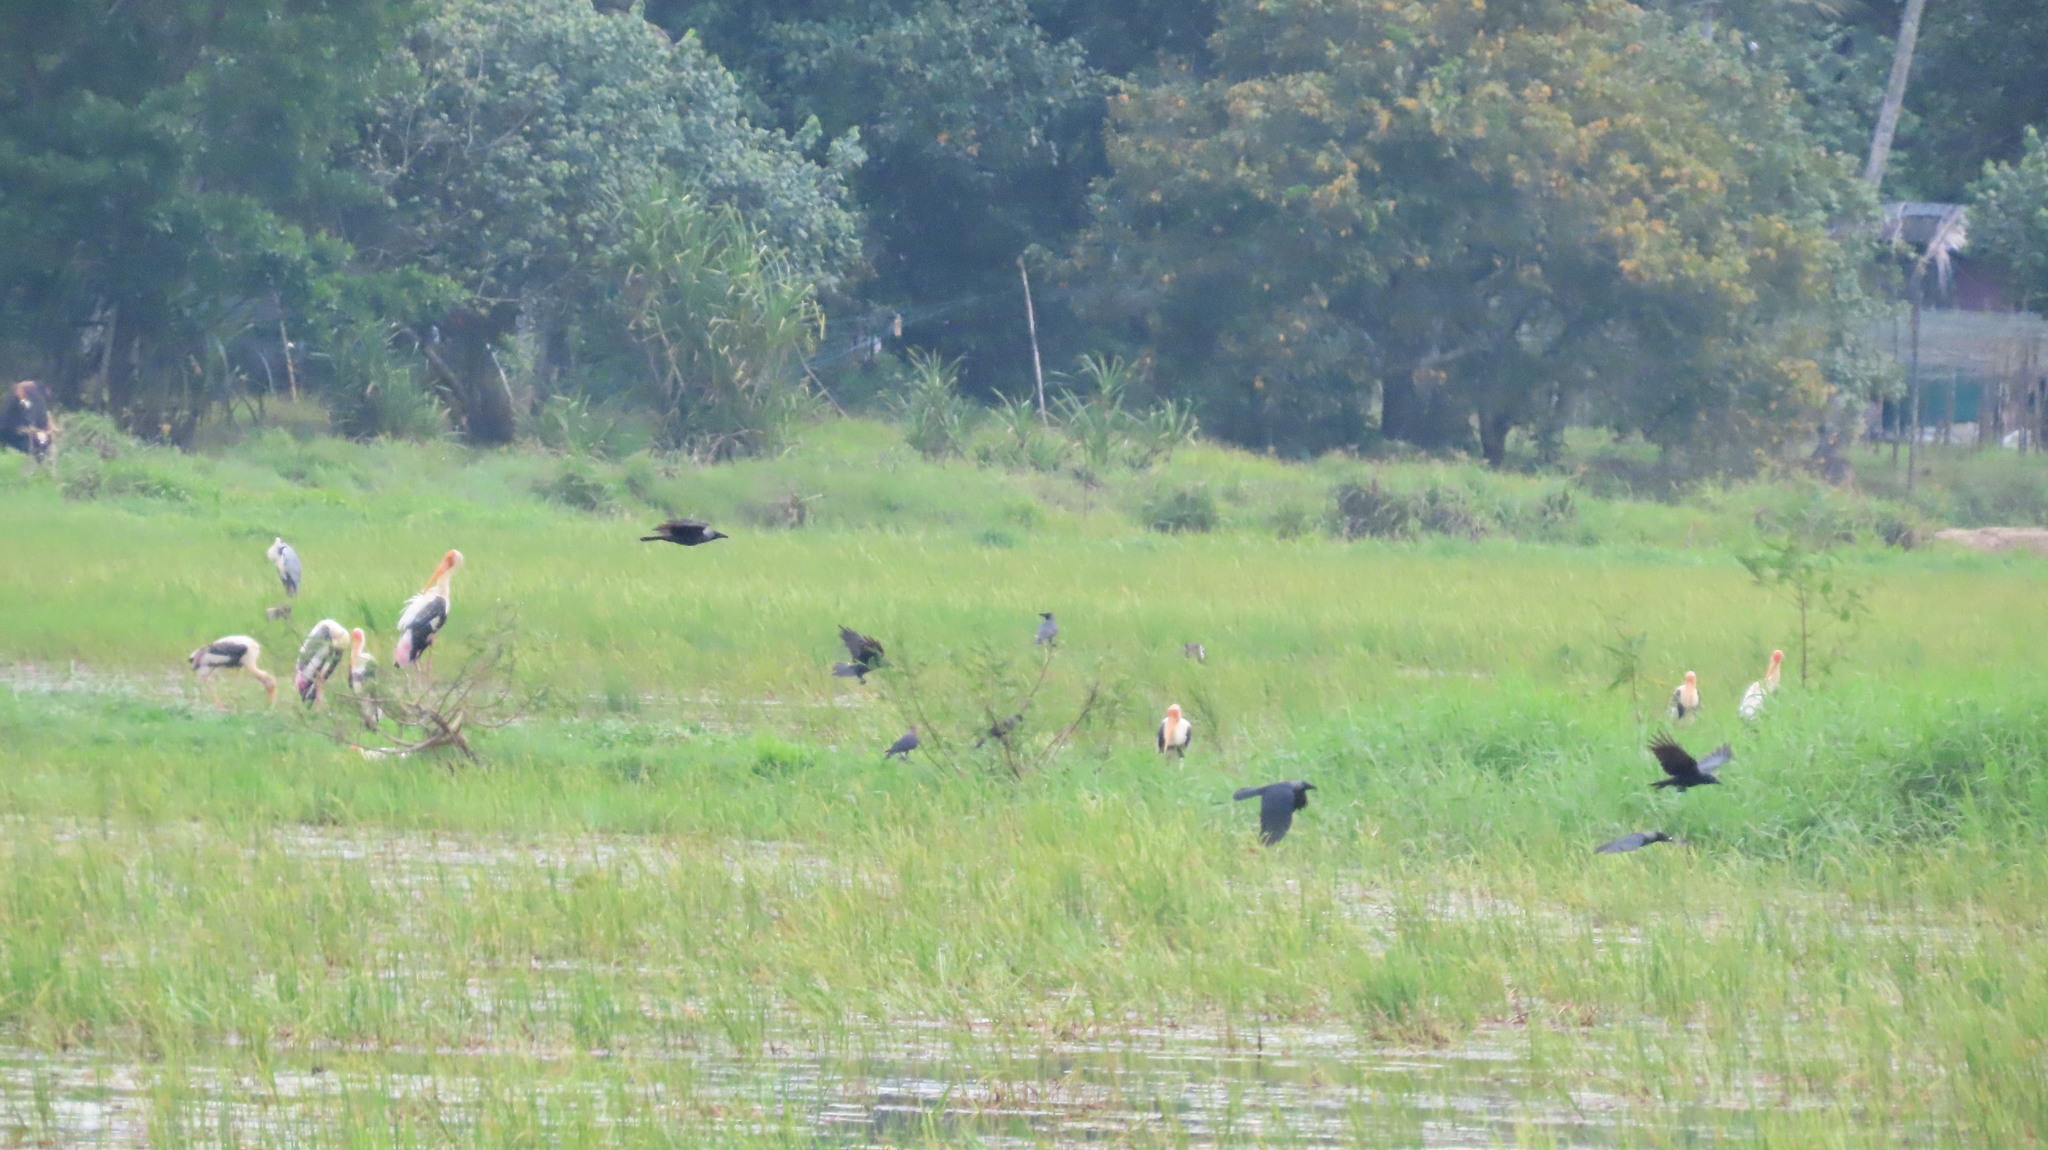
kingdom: Animalia
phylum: Chordata
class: Aves
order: Pelecaniformes
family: Ardeidae
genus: Ardea
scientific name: Ardea cinerea
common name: Grey heron
